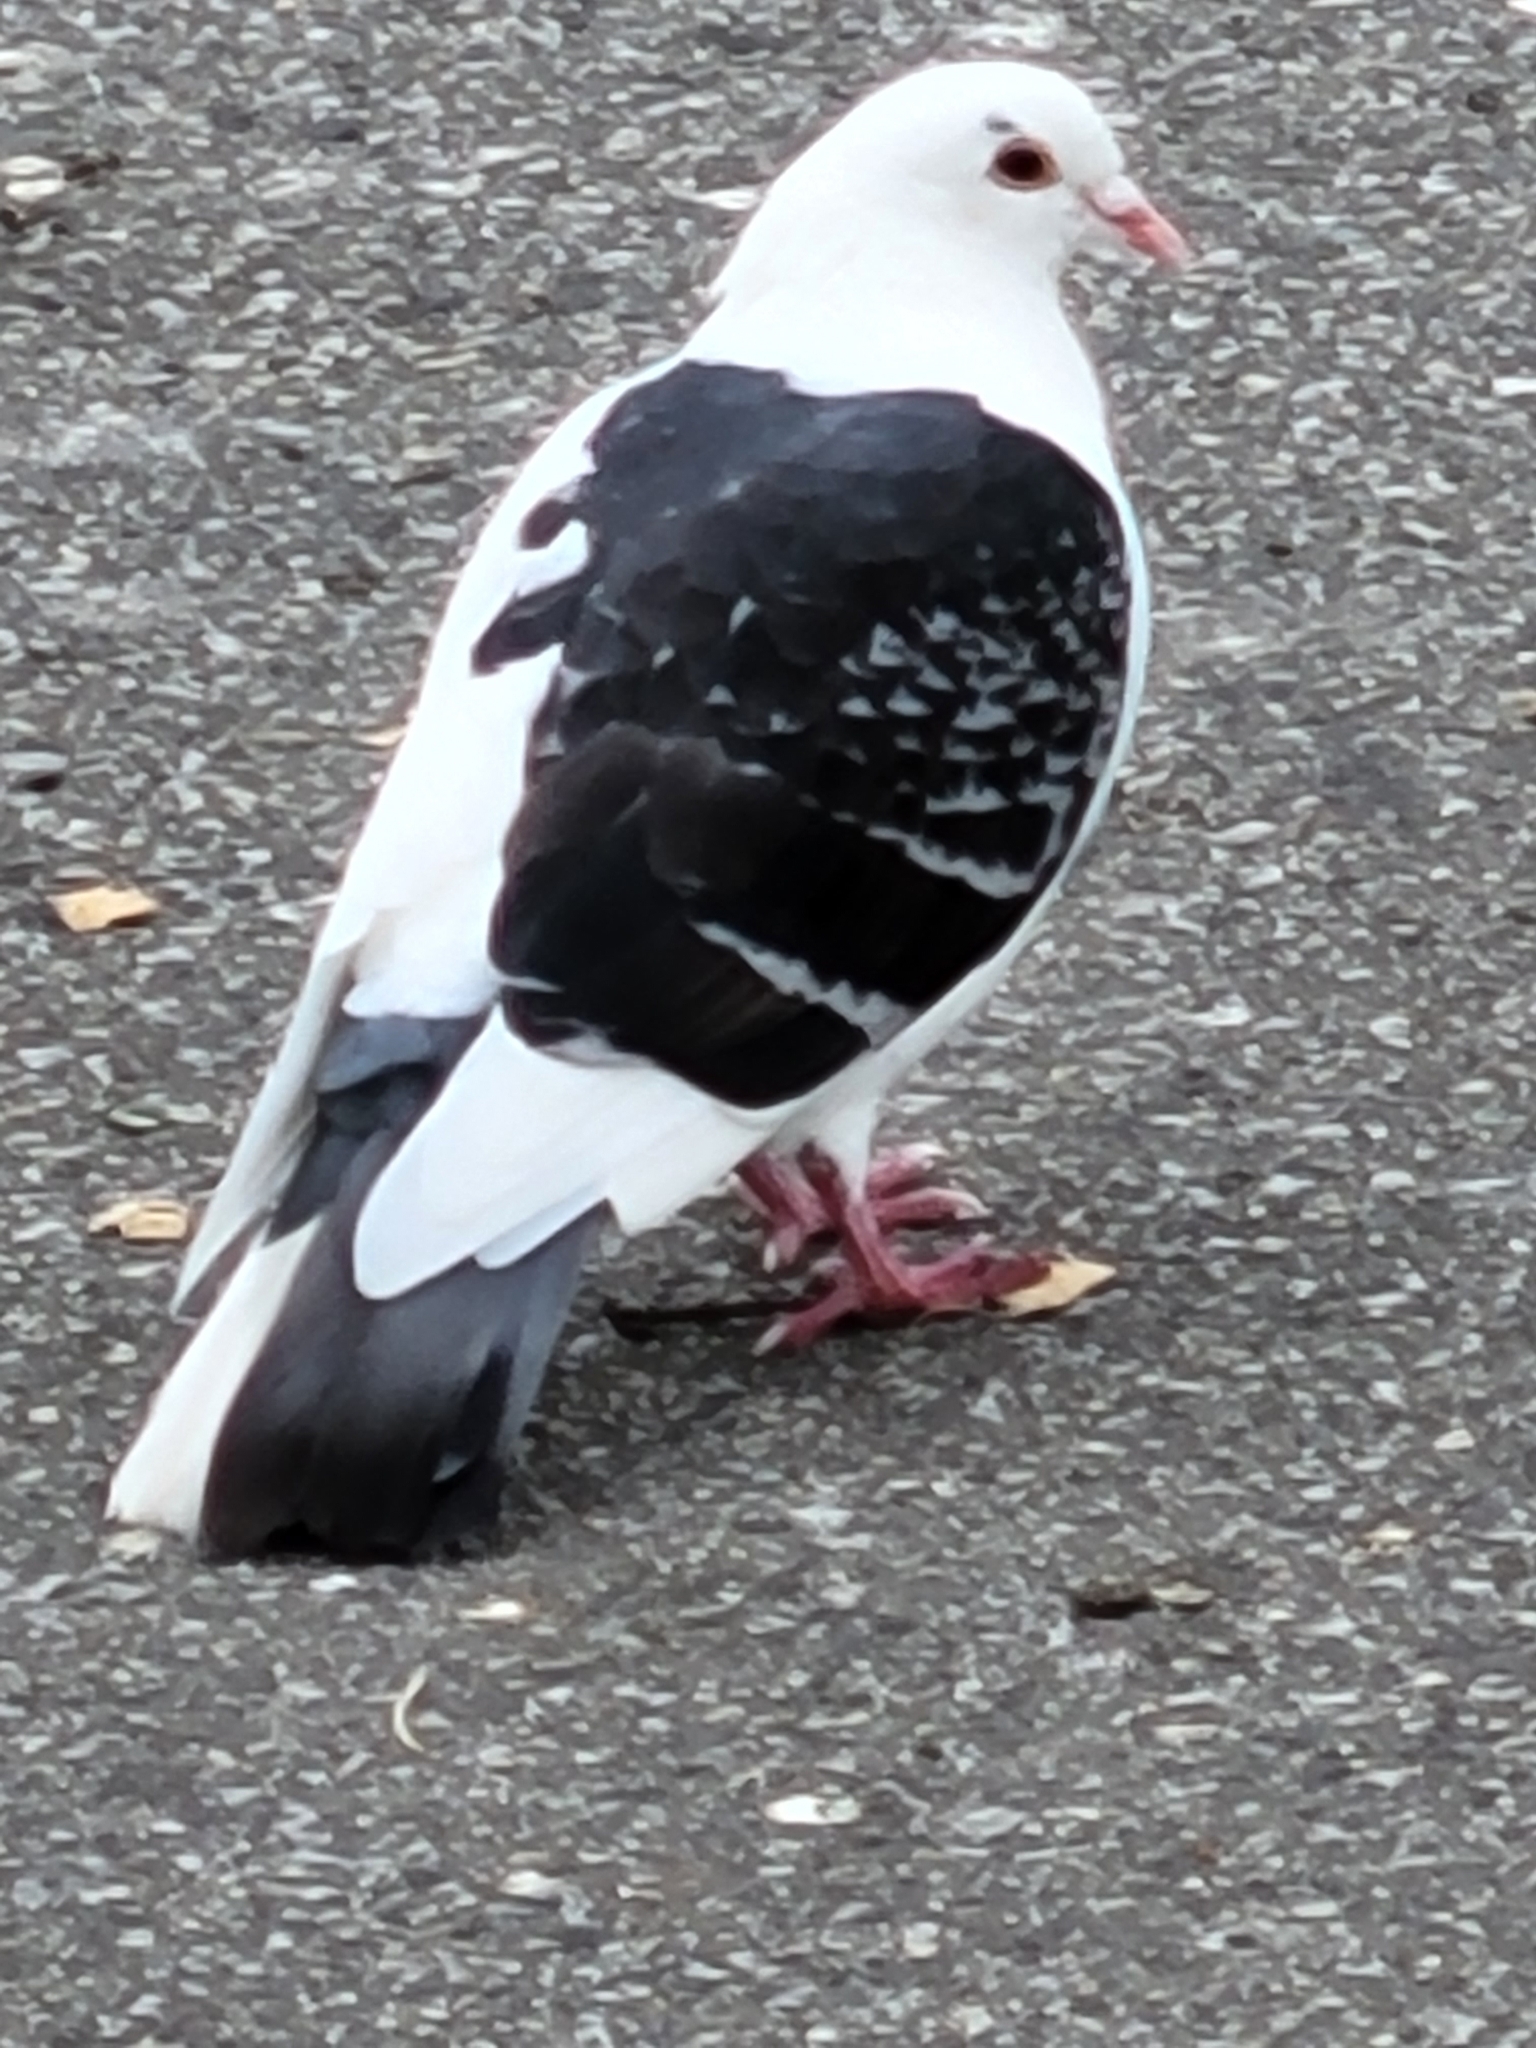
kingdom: Animalia
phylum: Chordata
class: Aves
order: Columbiformes
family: Columbidae
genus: Columba
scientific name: Columba livia
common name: Rock pigeon
